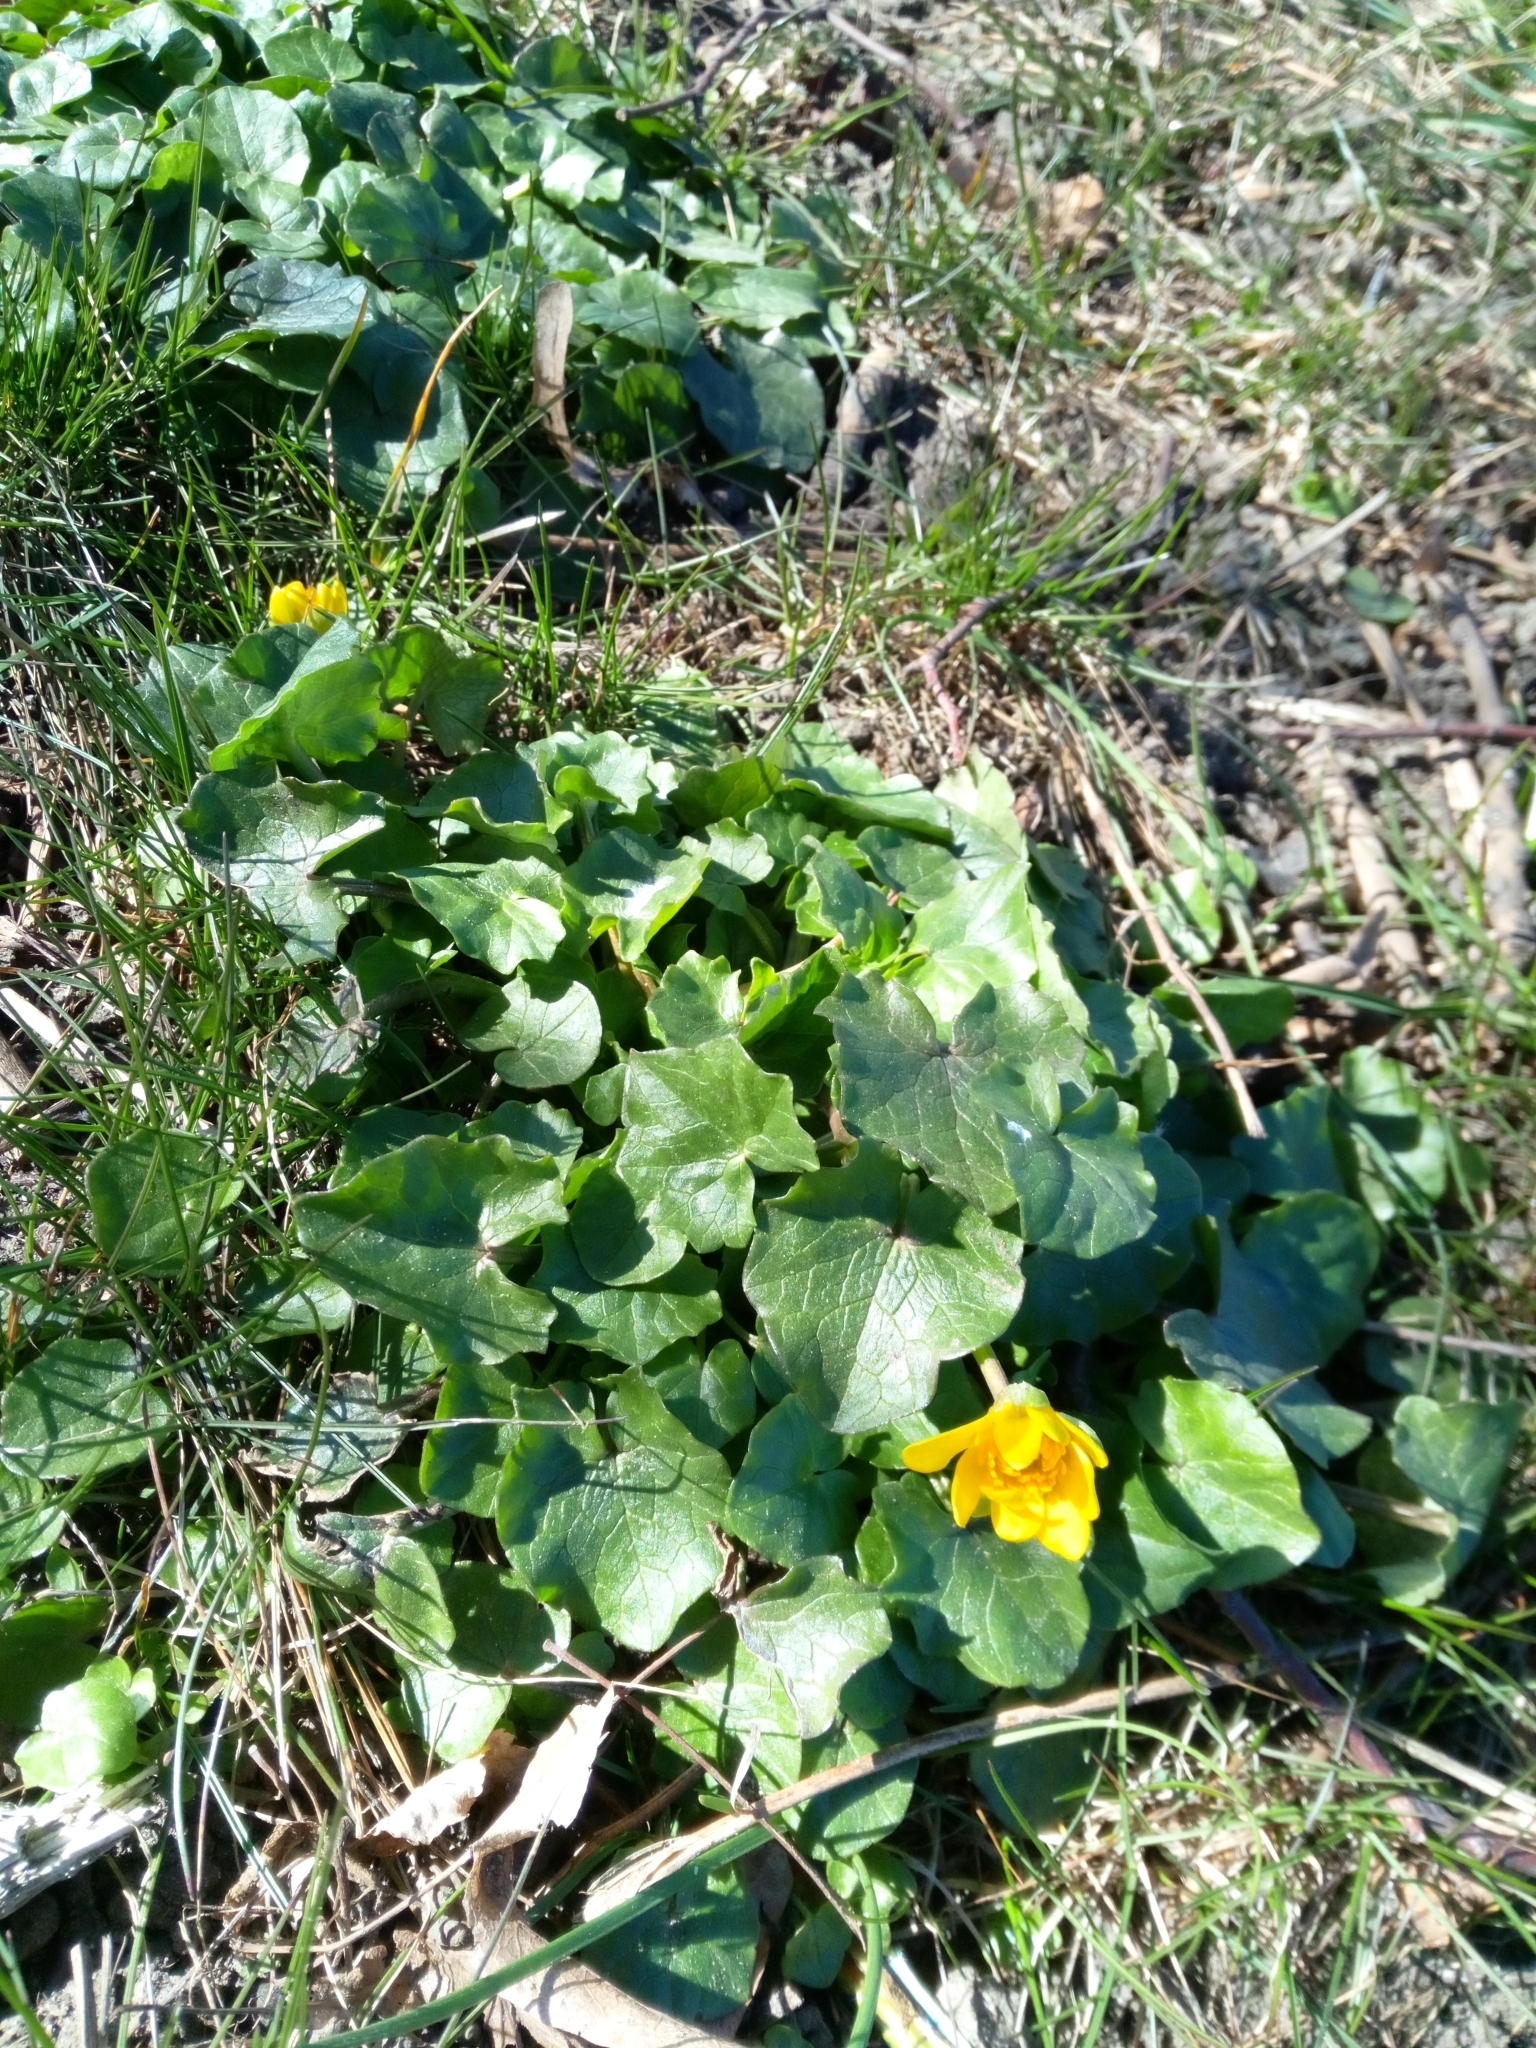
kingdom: Plantae
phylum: Tracheophyta
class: Magnoliopsida
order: Ranunculales
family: Ranunculaceae
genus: Ficaria
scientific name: Ficaria verna
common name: Lesser celandine
